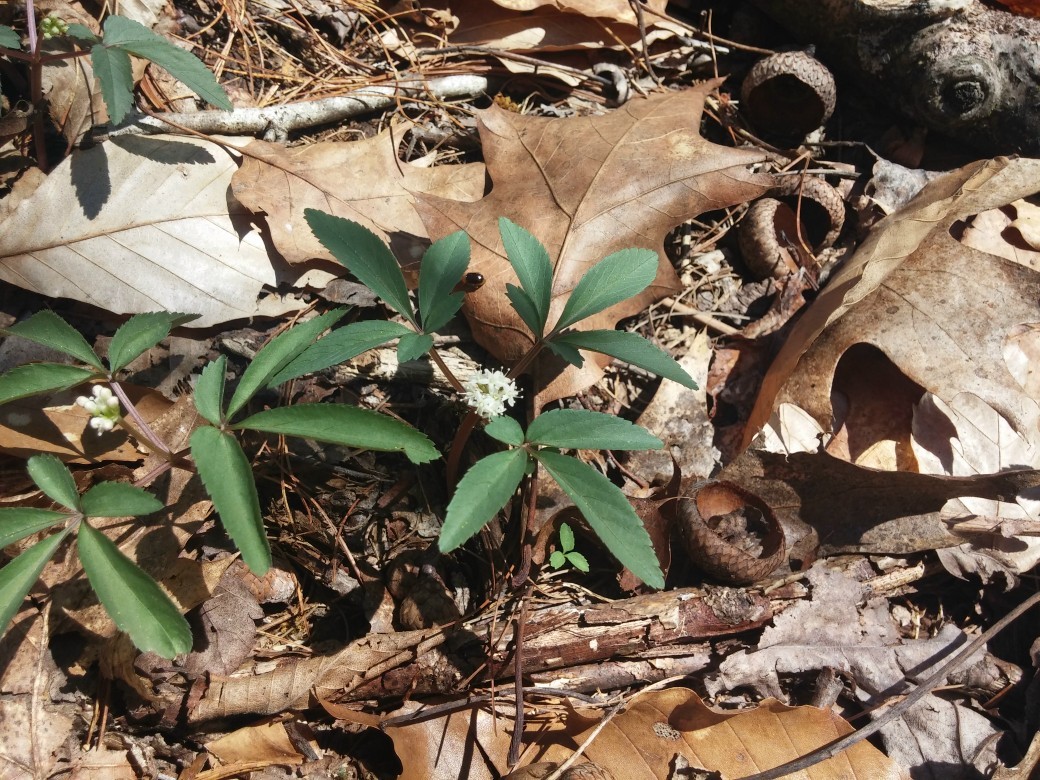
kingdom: Plantae
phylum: Tracheophyta
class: Magnoliopsida
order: Apiales
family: Araliaceae
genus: Panax
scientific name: Panax trifolius
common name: Dwarf ginseng
